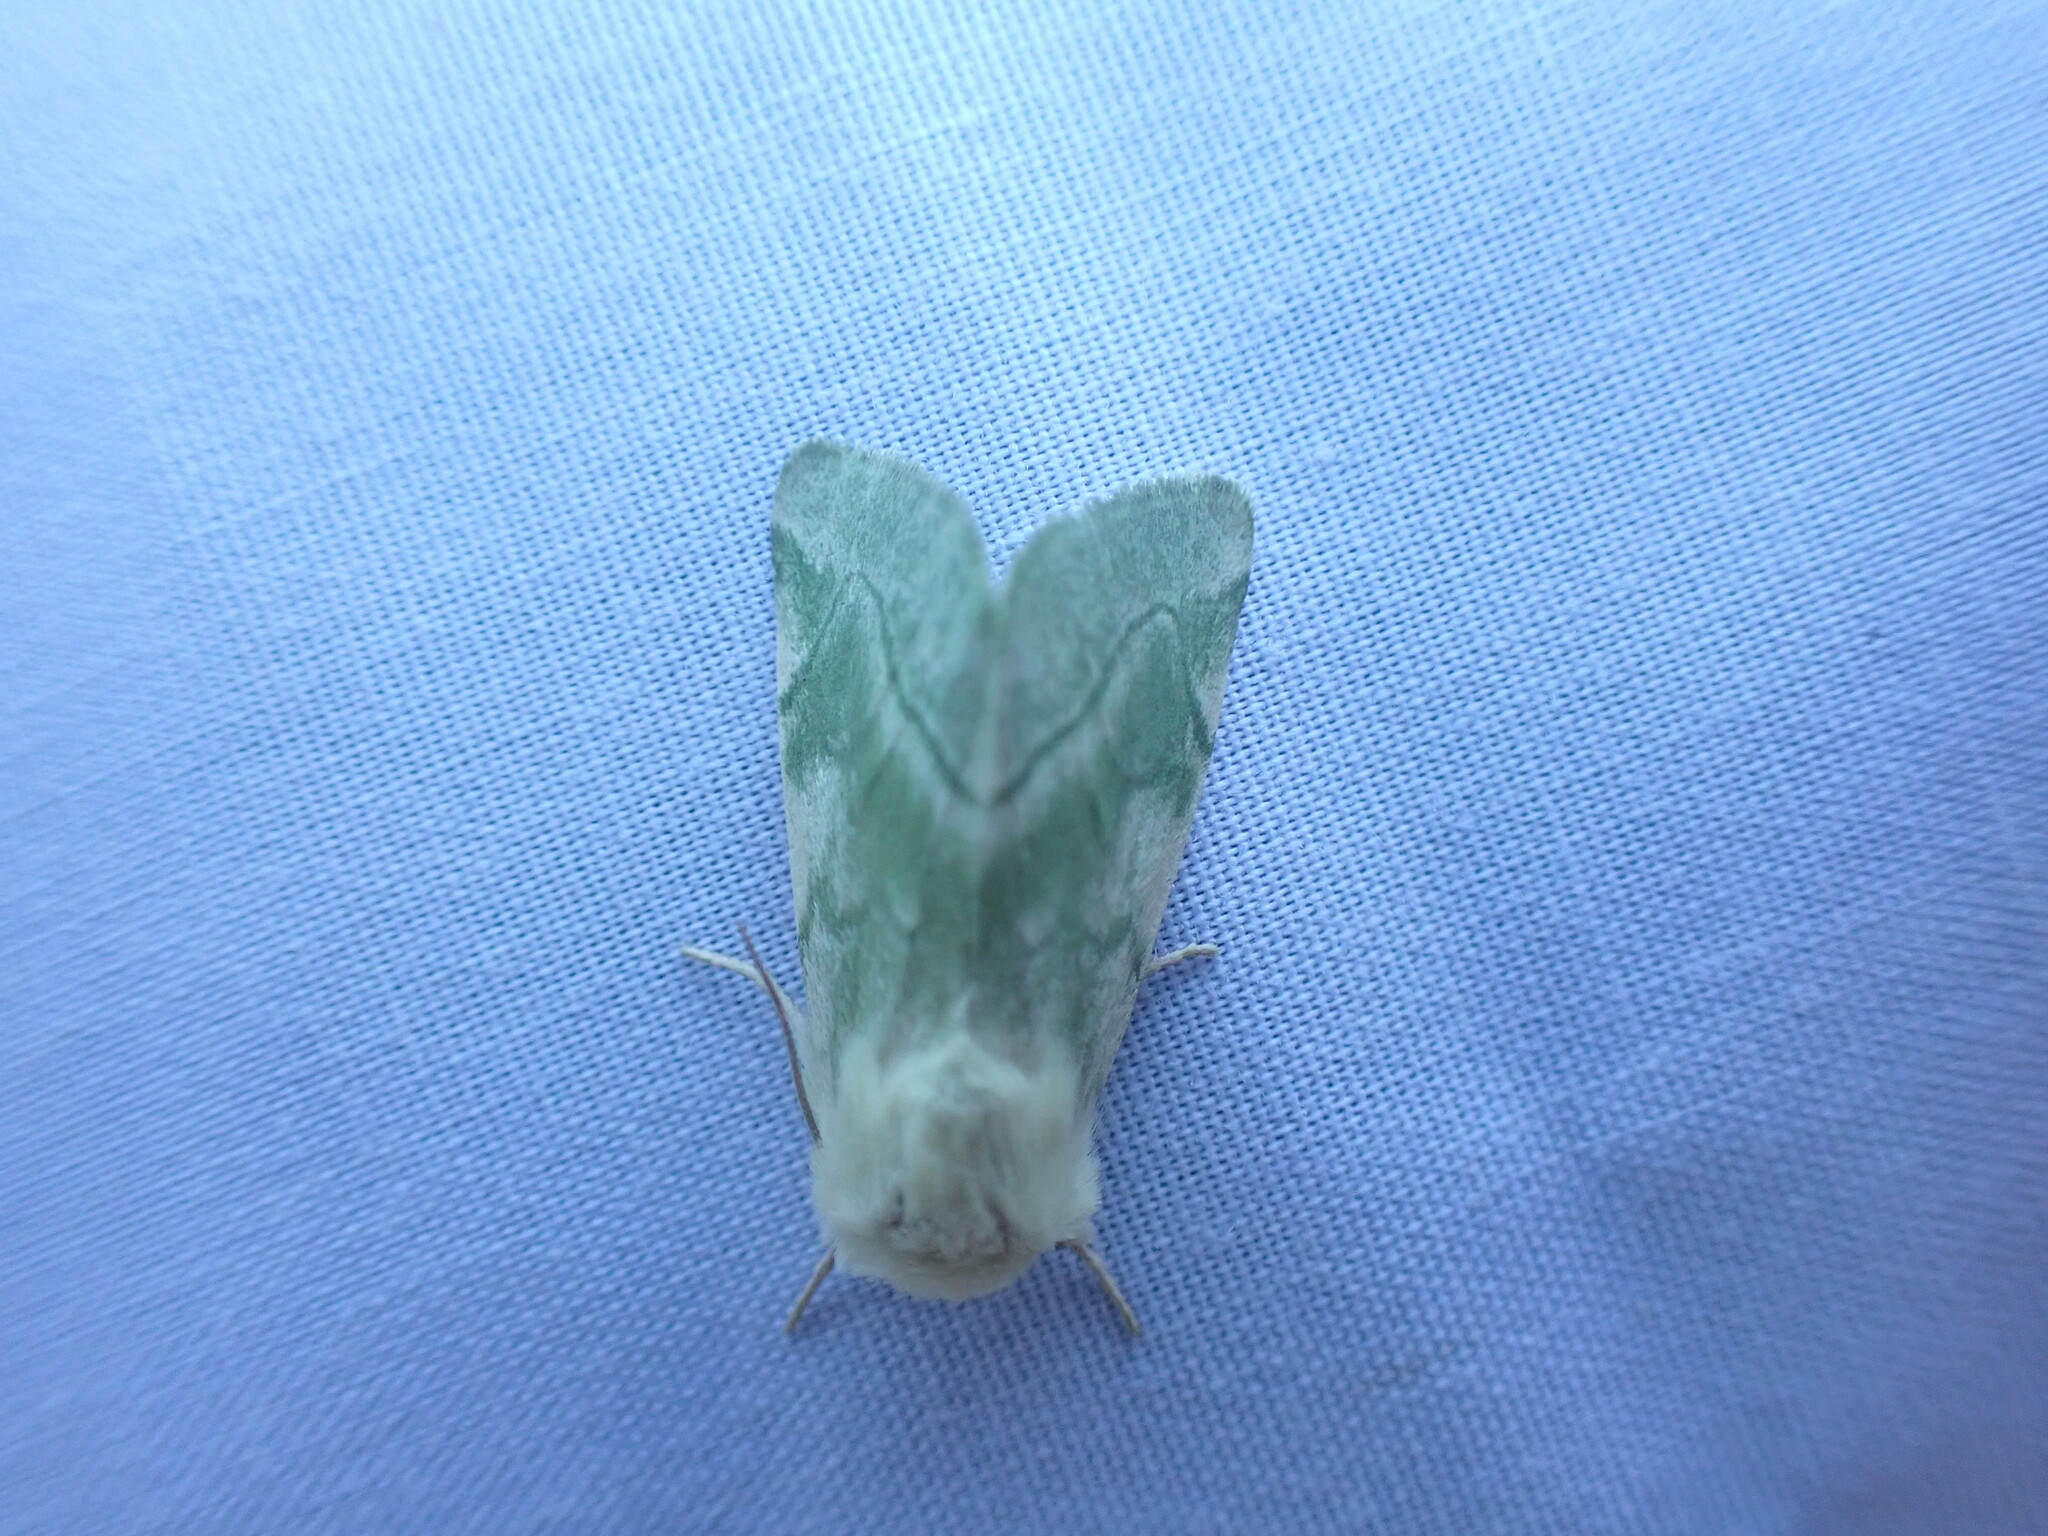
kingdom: Animalia
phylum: Arthropoda
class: Insecta
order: Lepidoptera
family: Noctuidae
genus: Zotheca
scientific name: Zotheca tranquilla
